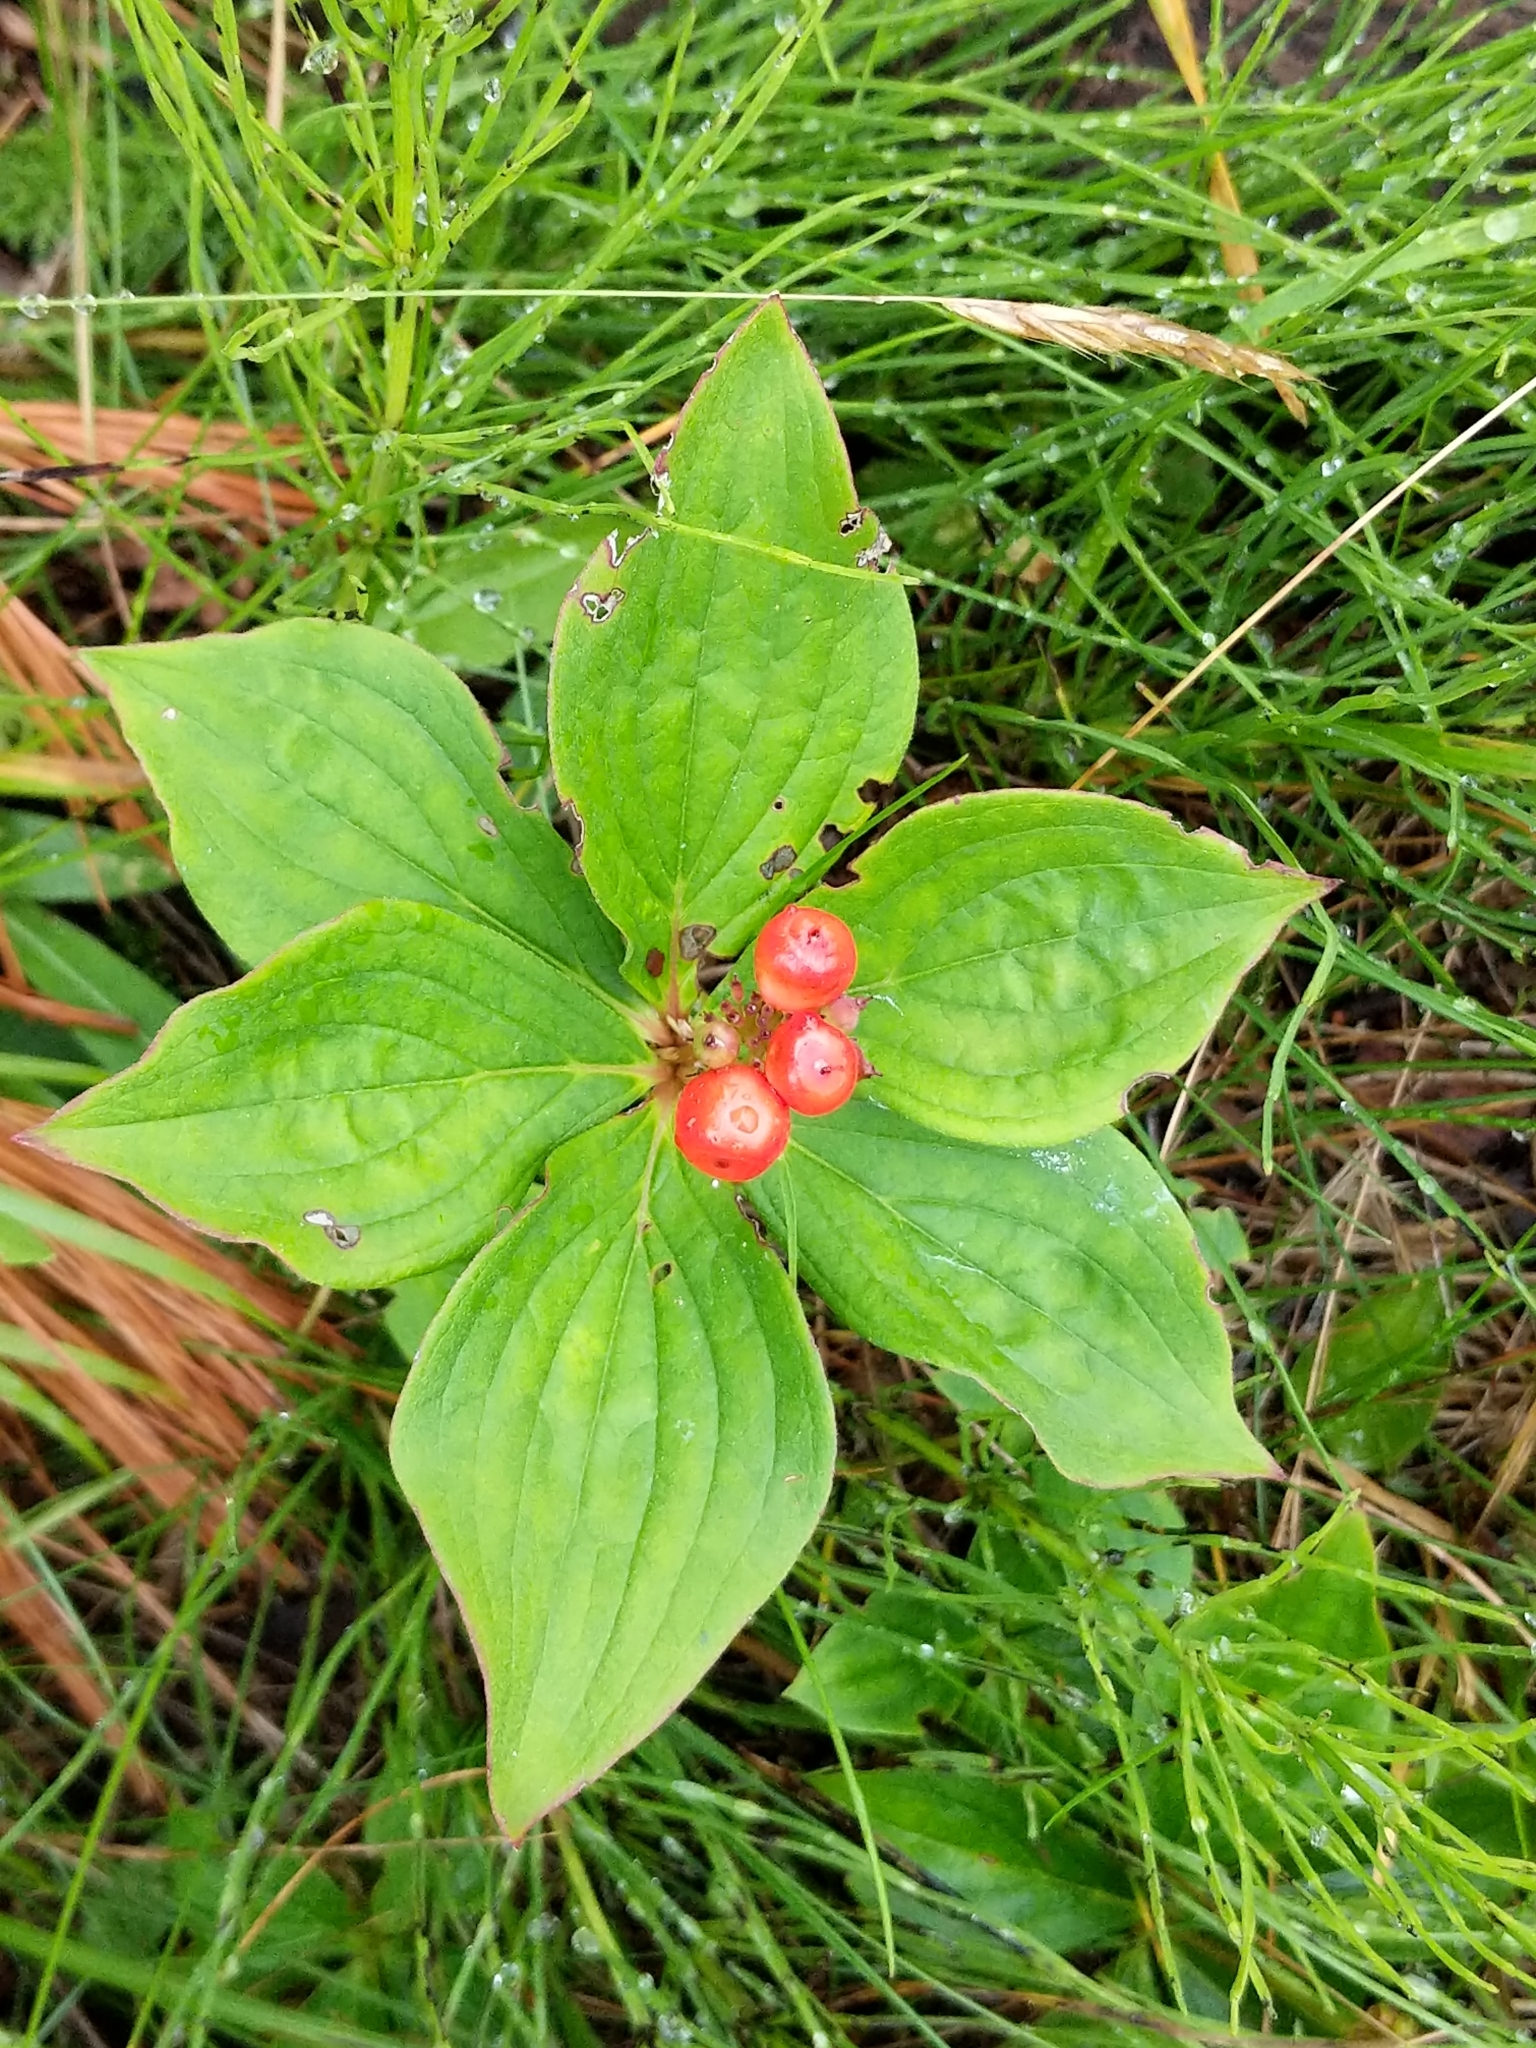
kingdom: Plantae
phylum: Tracheophyta
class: Magnoliopsida
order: Cornales
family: Cornaceae
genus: Cornus
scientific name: Cornus canadensis
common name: Creeping dogwood
